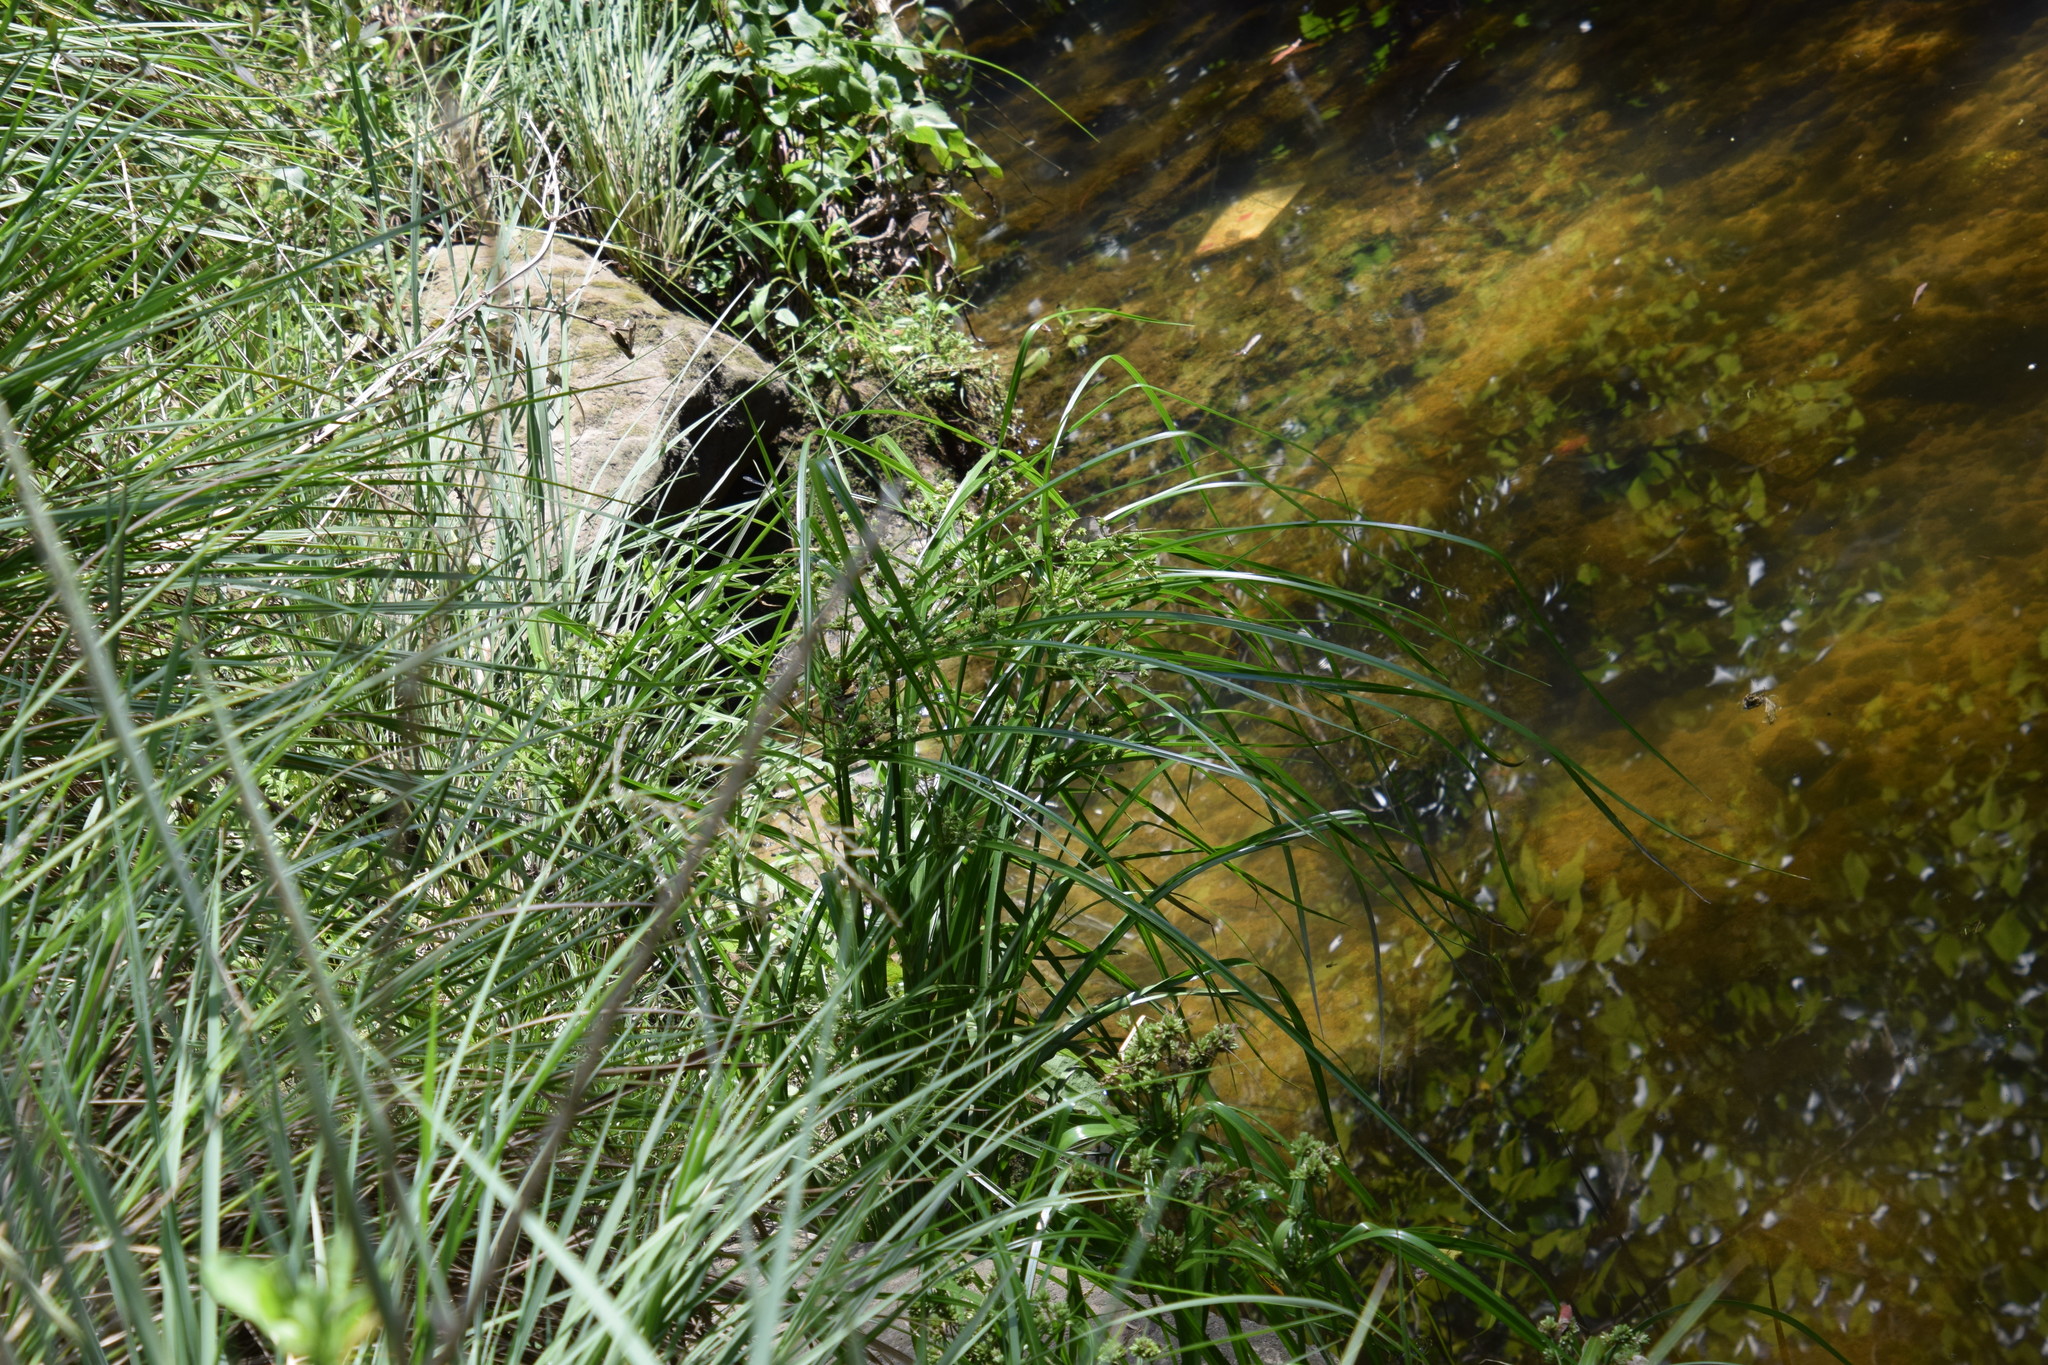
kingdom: Plantae
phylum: Tracheophyta
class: Liliopsida
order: Poales
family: Cyperaceae
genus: Cyperus
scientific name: Cyperus eragrostis
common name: Tall flatsedge
